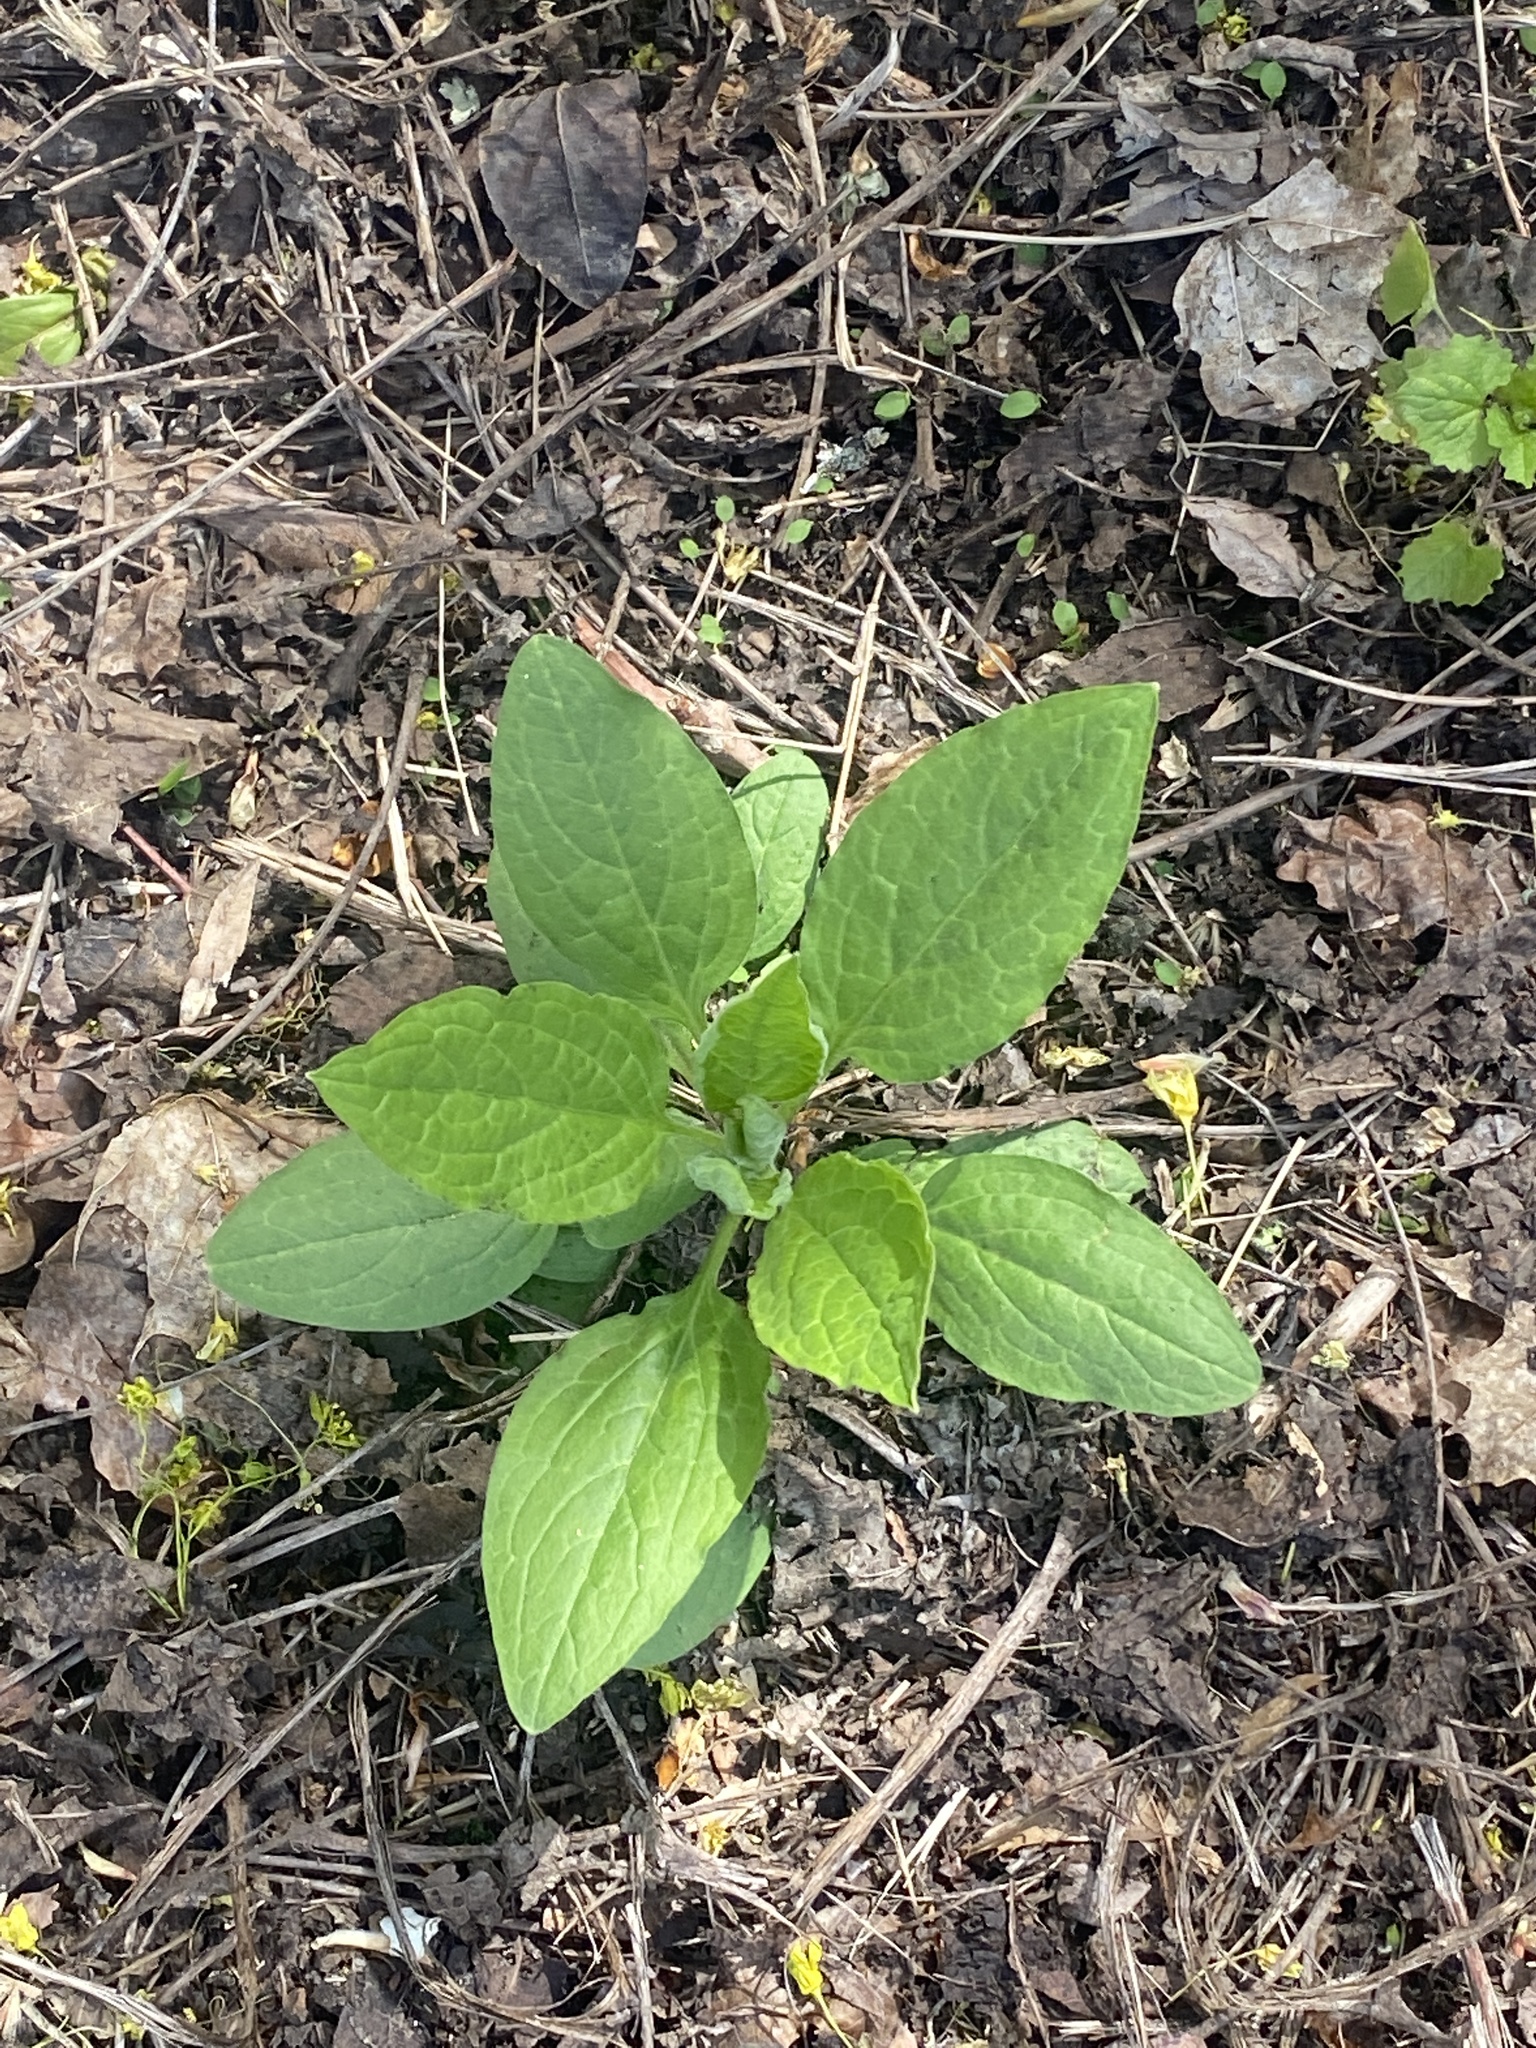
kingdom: Plantae
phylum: Tracheophyta
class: Magnoliopsida
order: Boraginales
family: Boraginaceae
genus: Hackelia
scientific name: Hackelia virginiana
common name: Beggar's-lice
